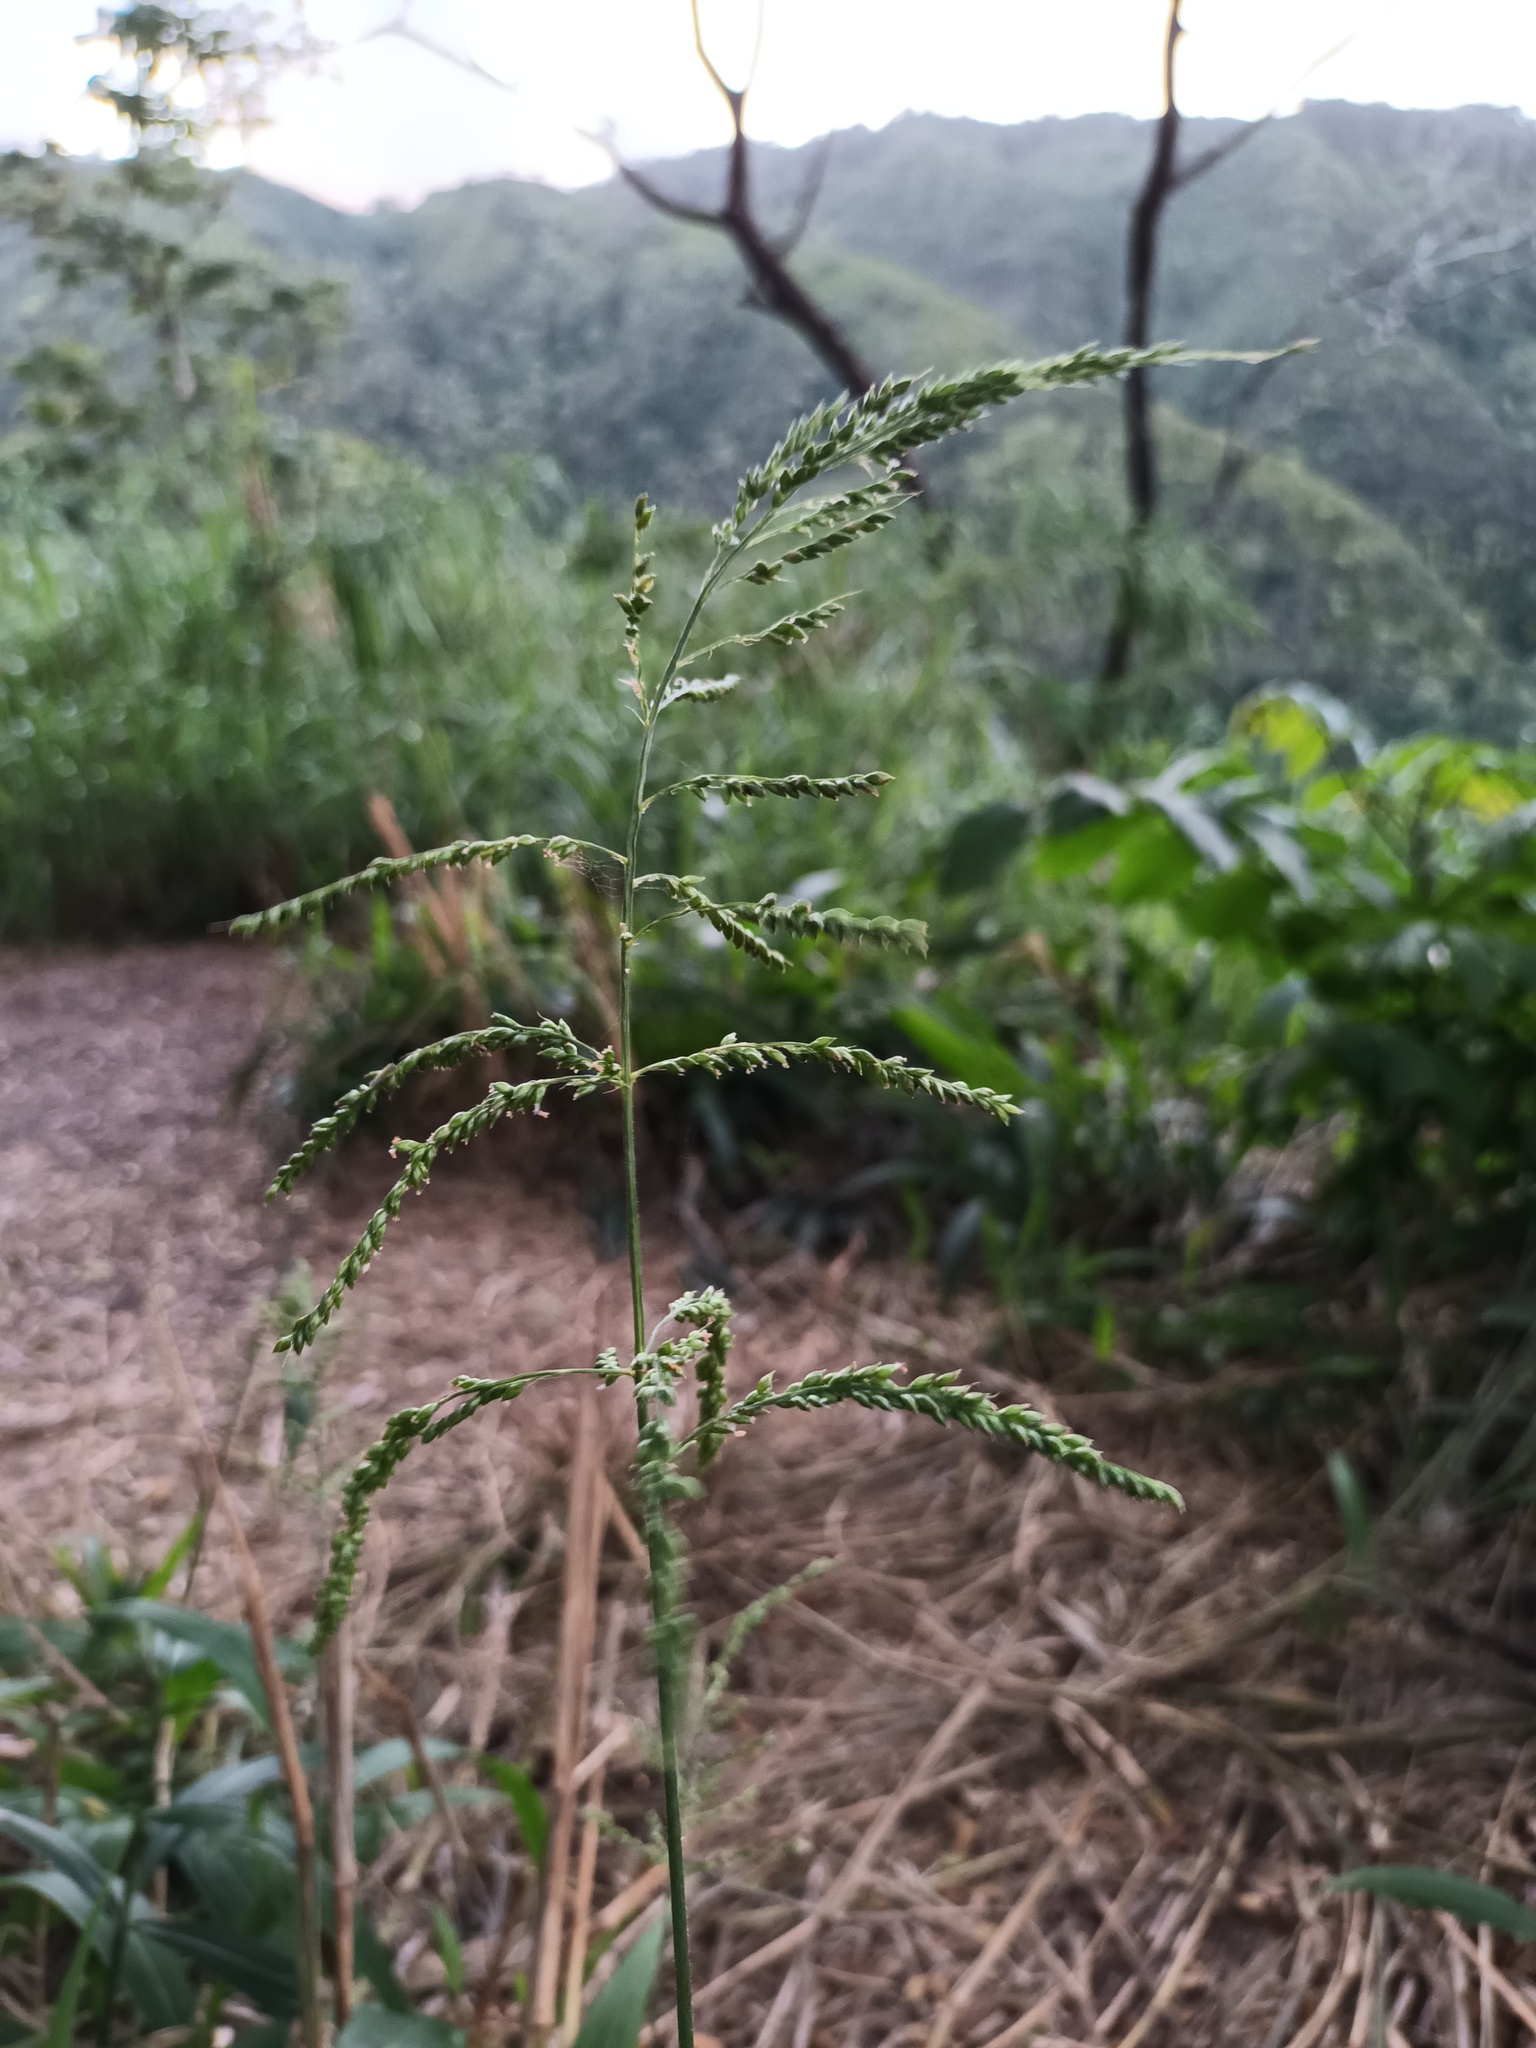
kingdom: Plantae
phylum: Tracheophyta
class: Liliopsida
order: Poales
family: Poaceae
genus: Setaria
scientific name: Setaria palmifolia
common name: Broadleaved bristlegrass
